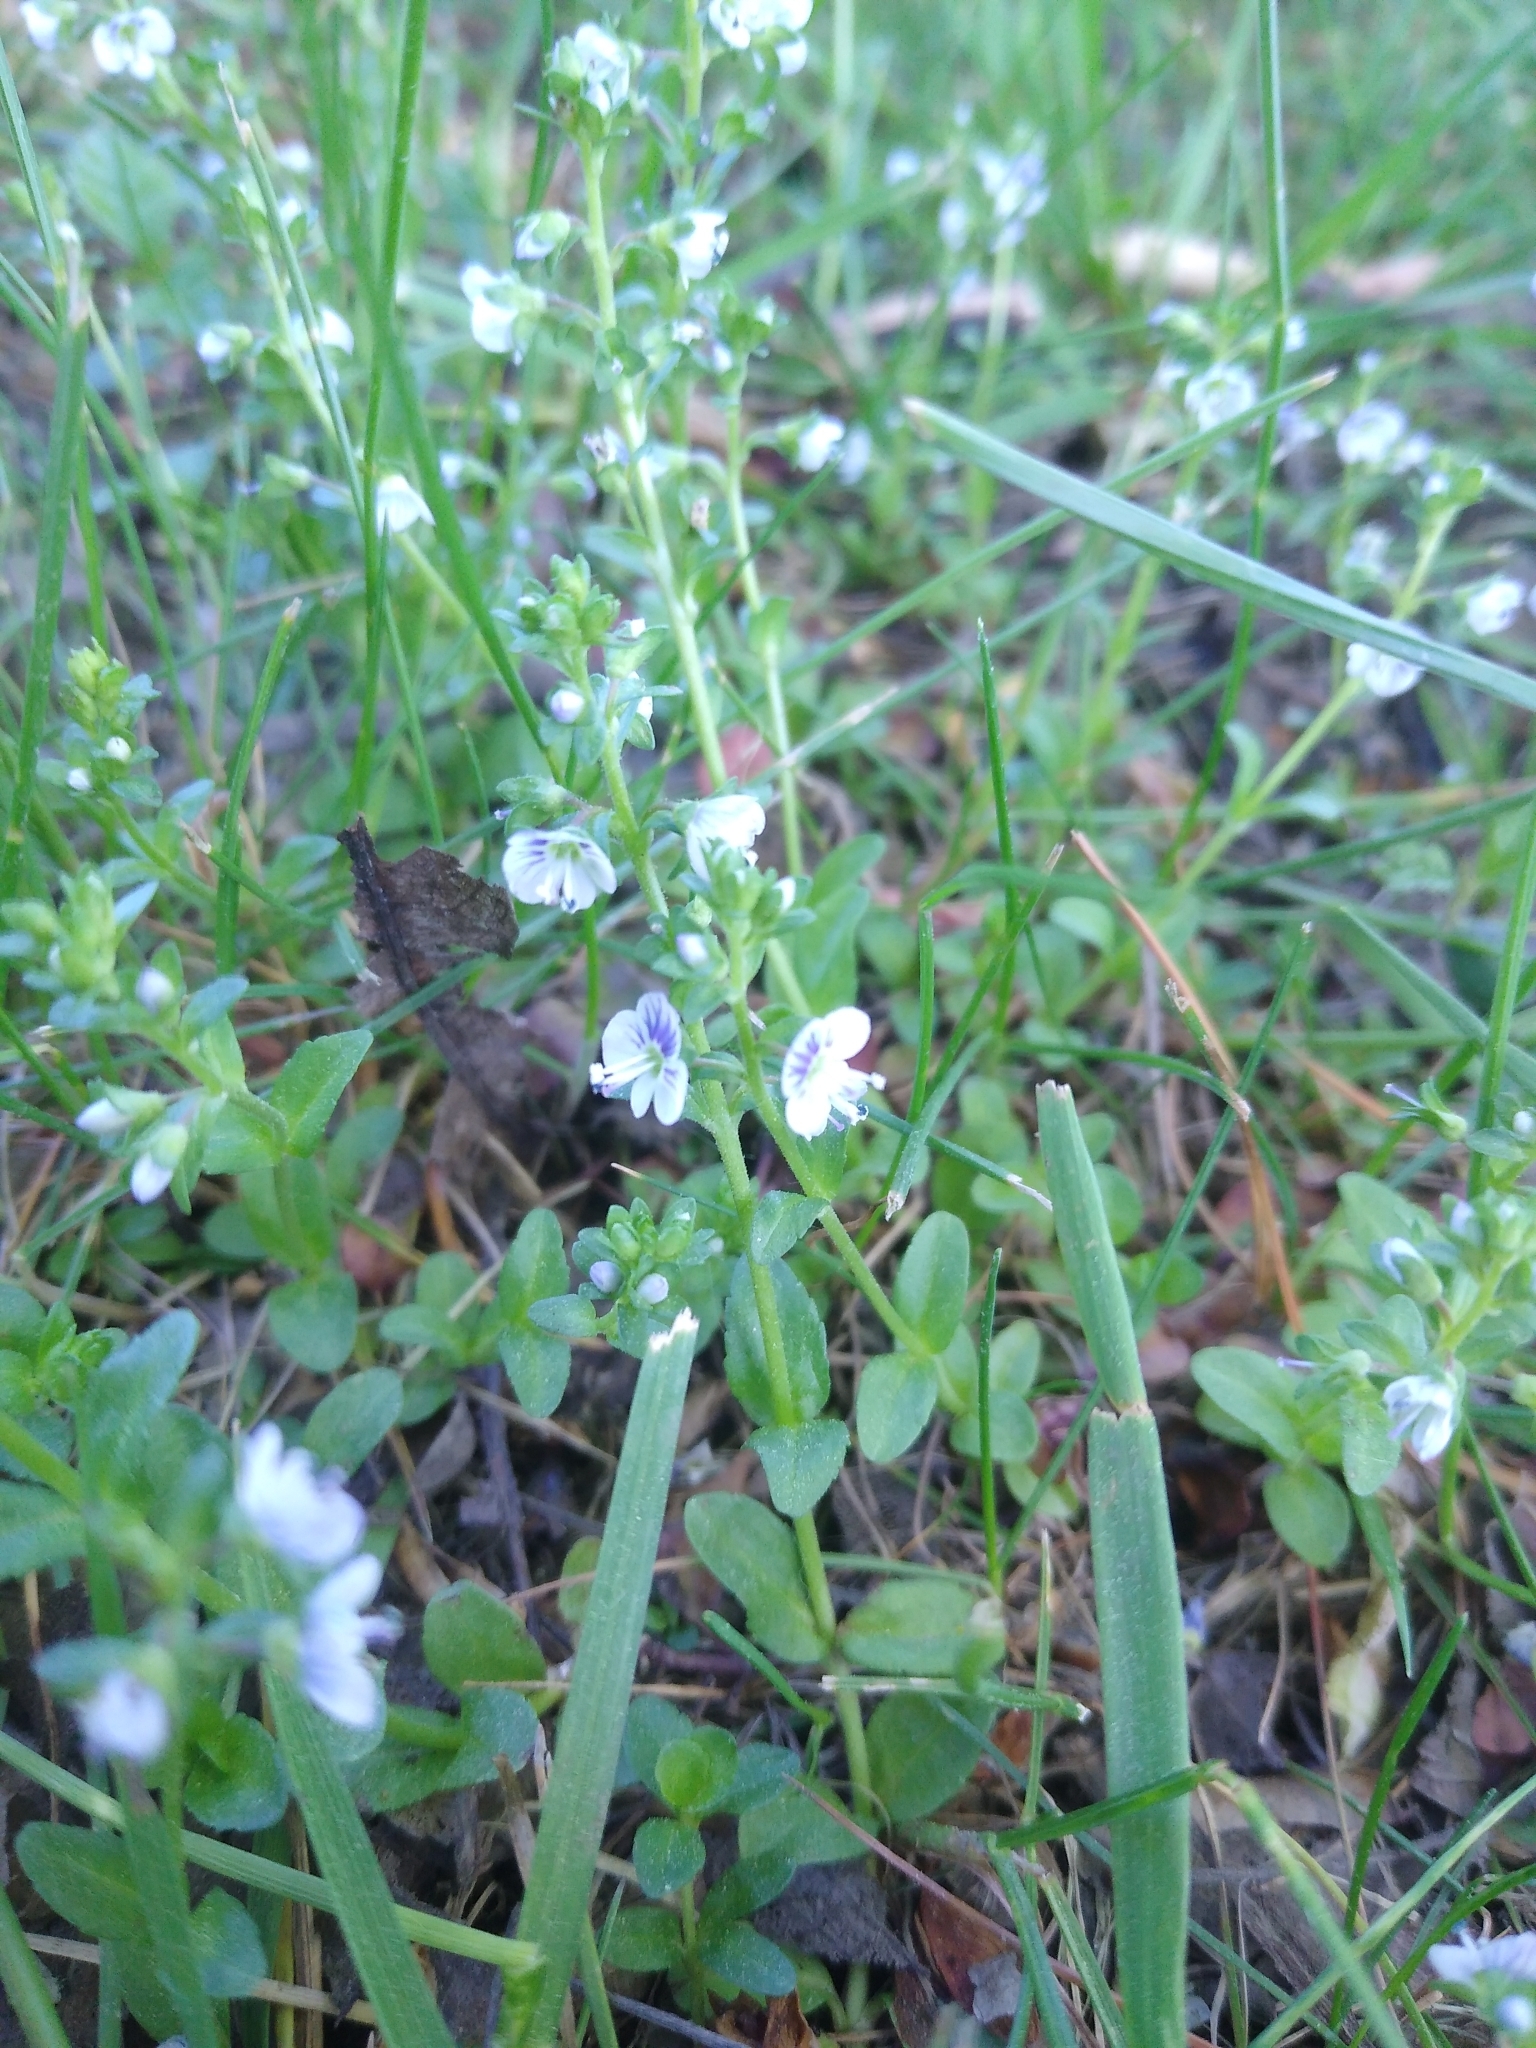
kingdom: Plantae
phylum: Tracheophyta
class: Magnoliopsida
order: Lamiales
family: Plantaginaceae
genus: Veronica
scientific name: Veronica serpyllifolia
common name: Thyme-leaved speedwell
